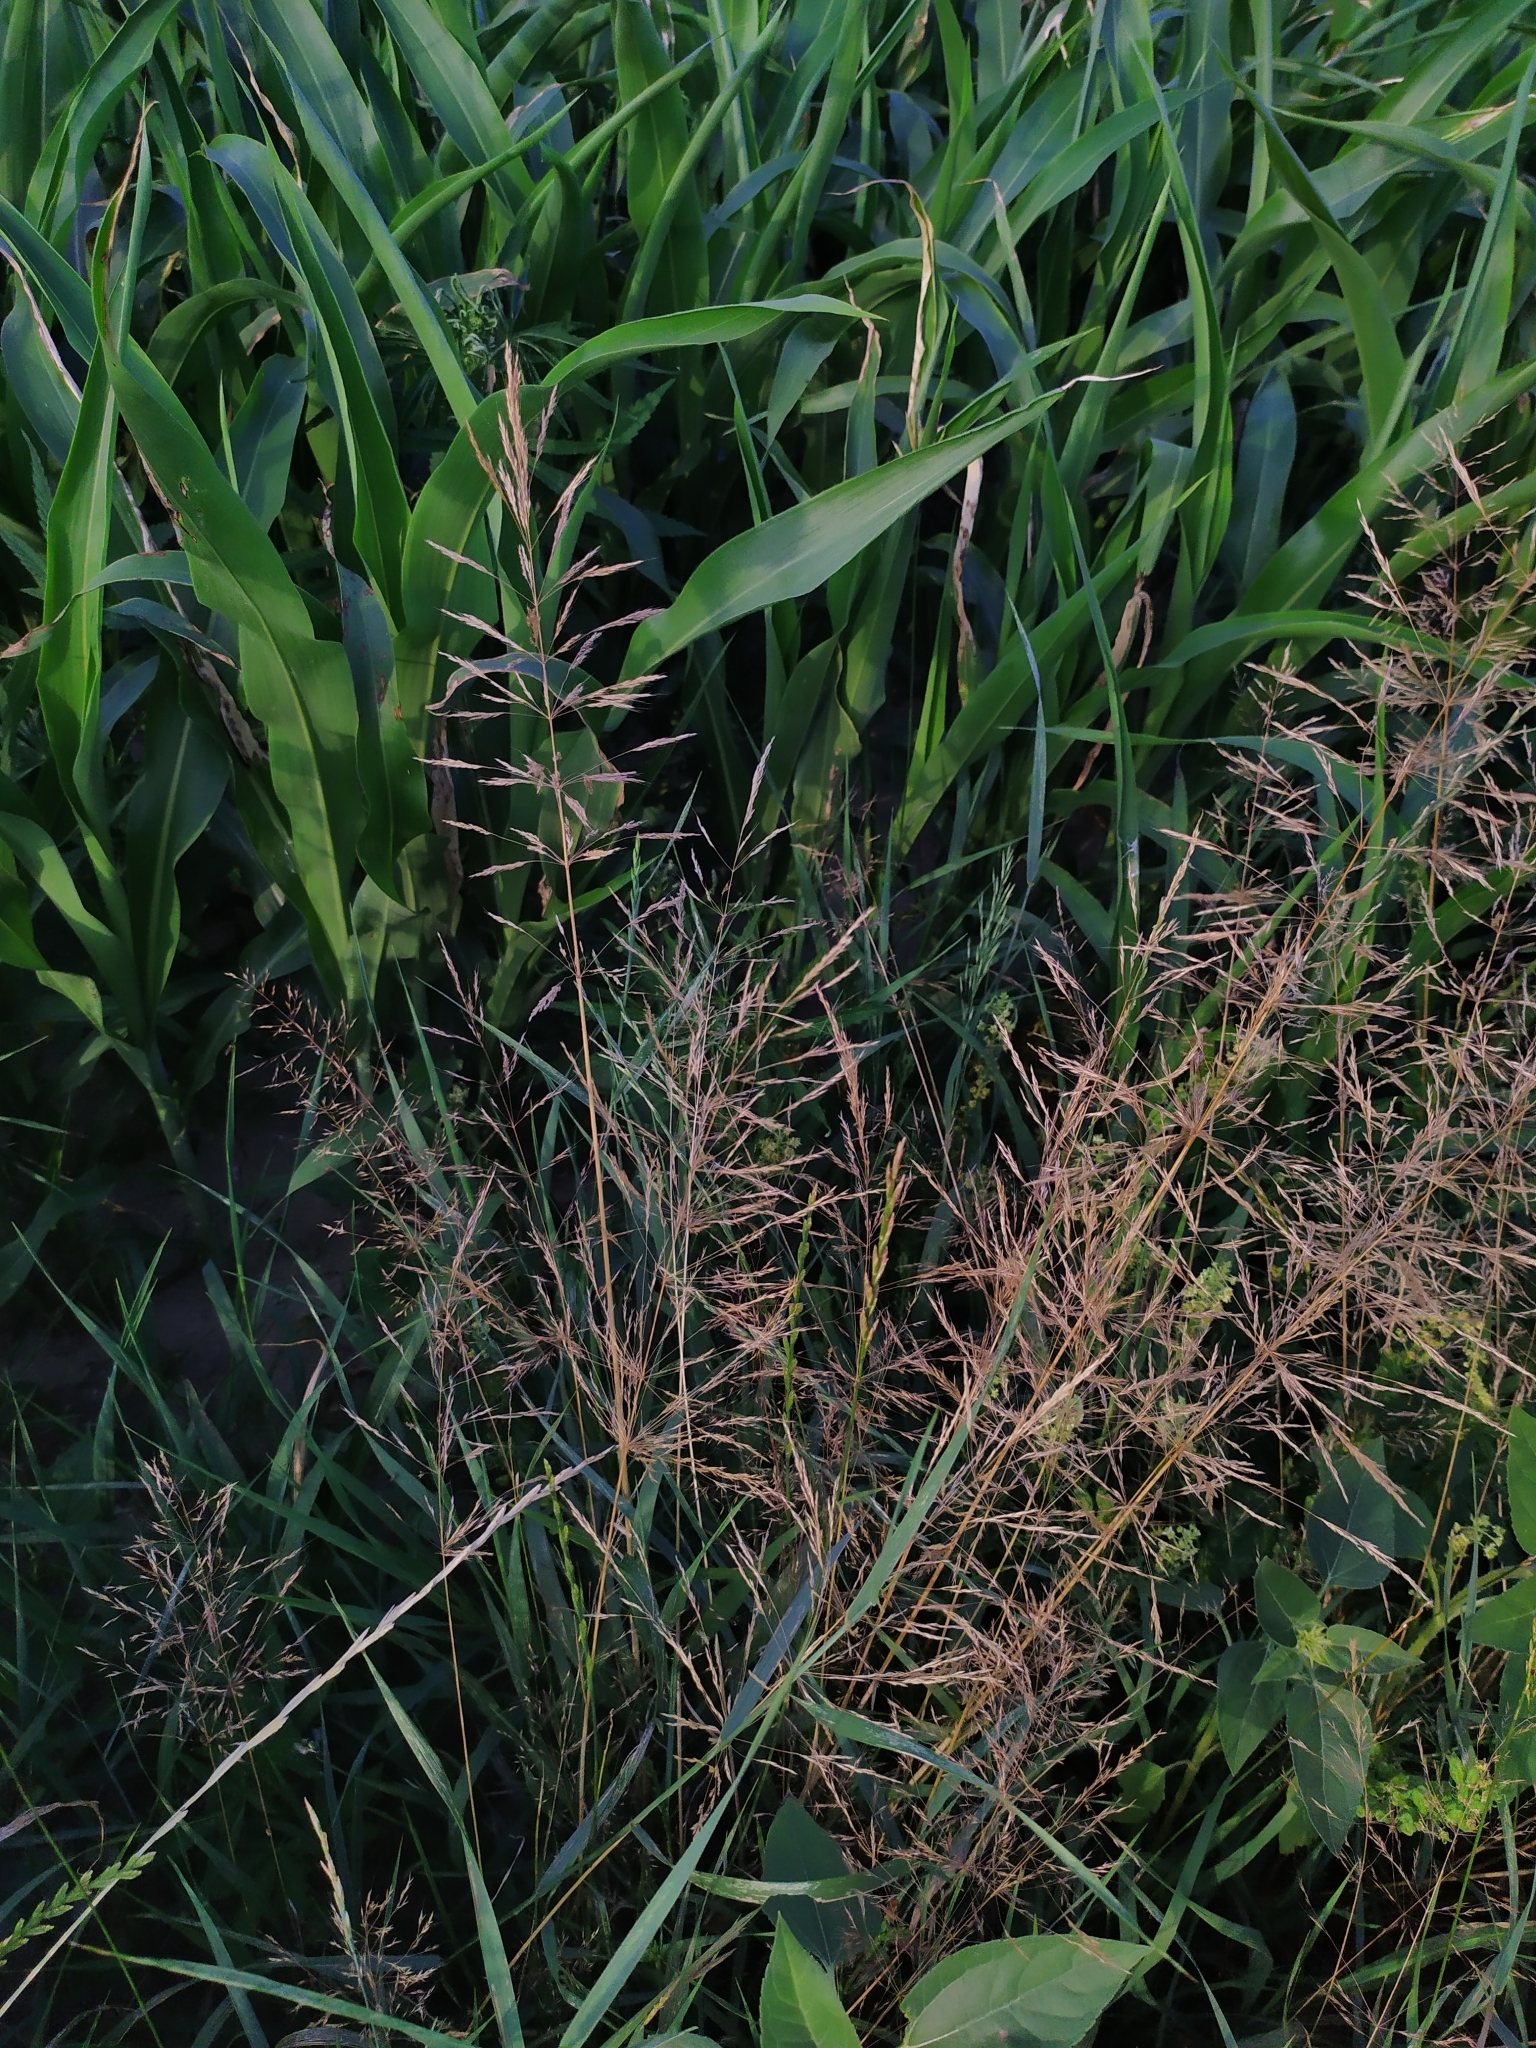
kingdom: Plantae
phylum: Tracheophyta
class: Liliopsida
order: Poales
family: Poaceae
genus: Apera
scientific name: Apera spica-venti
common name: Loose silky-bent
